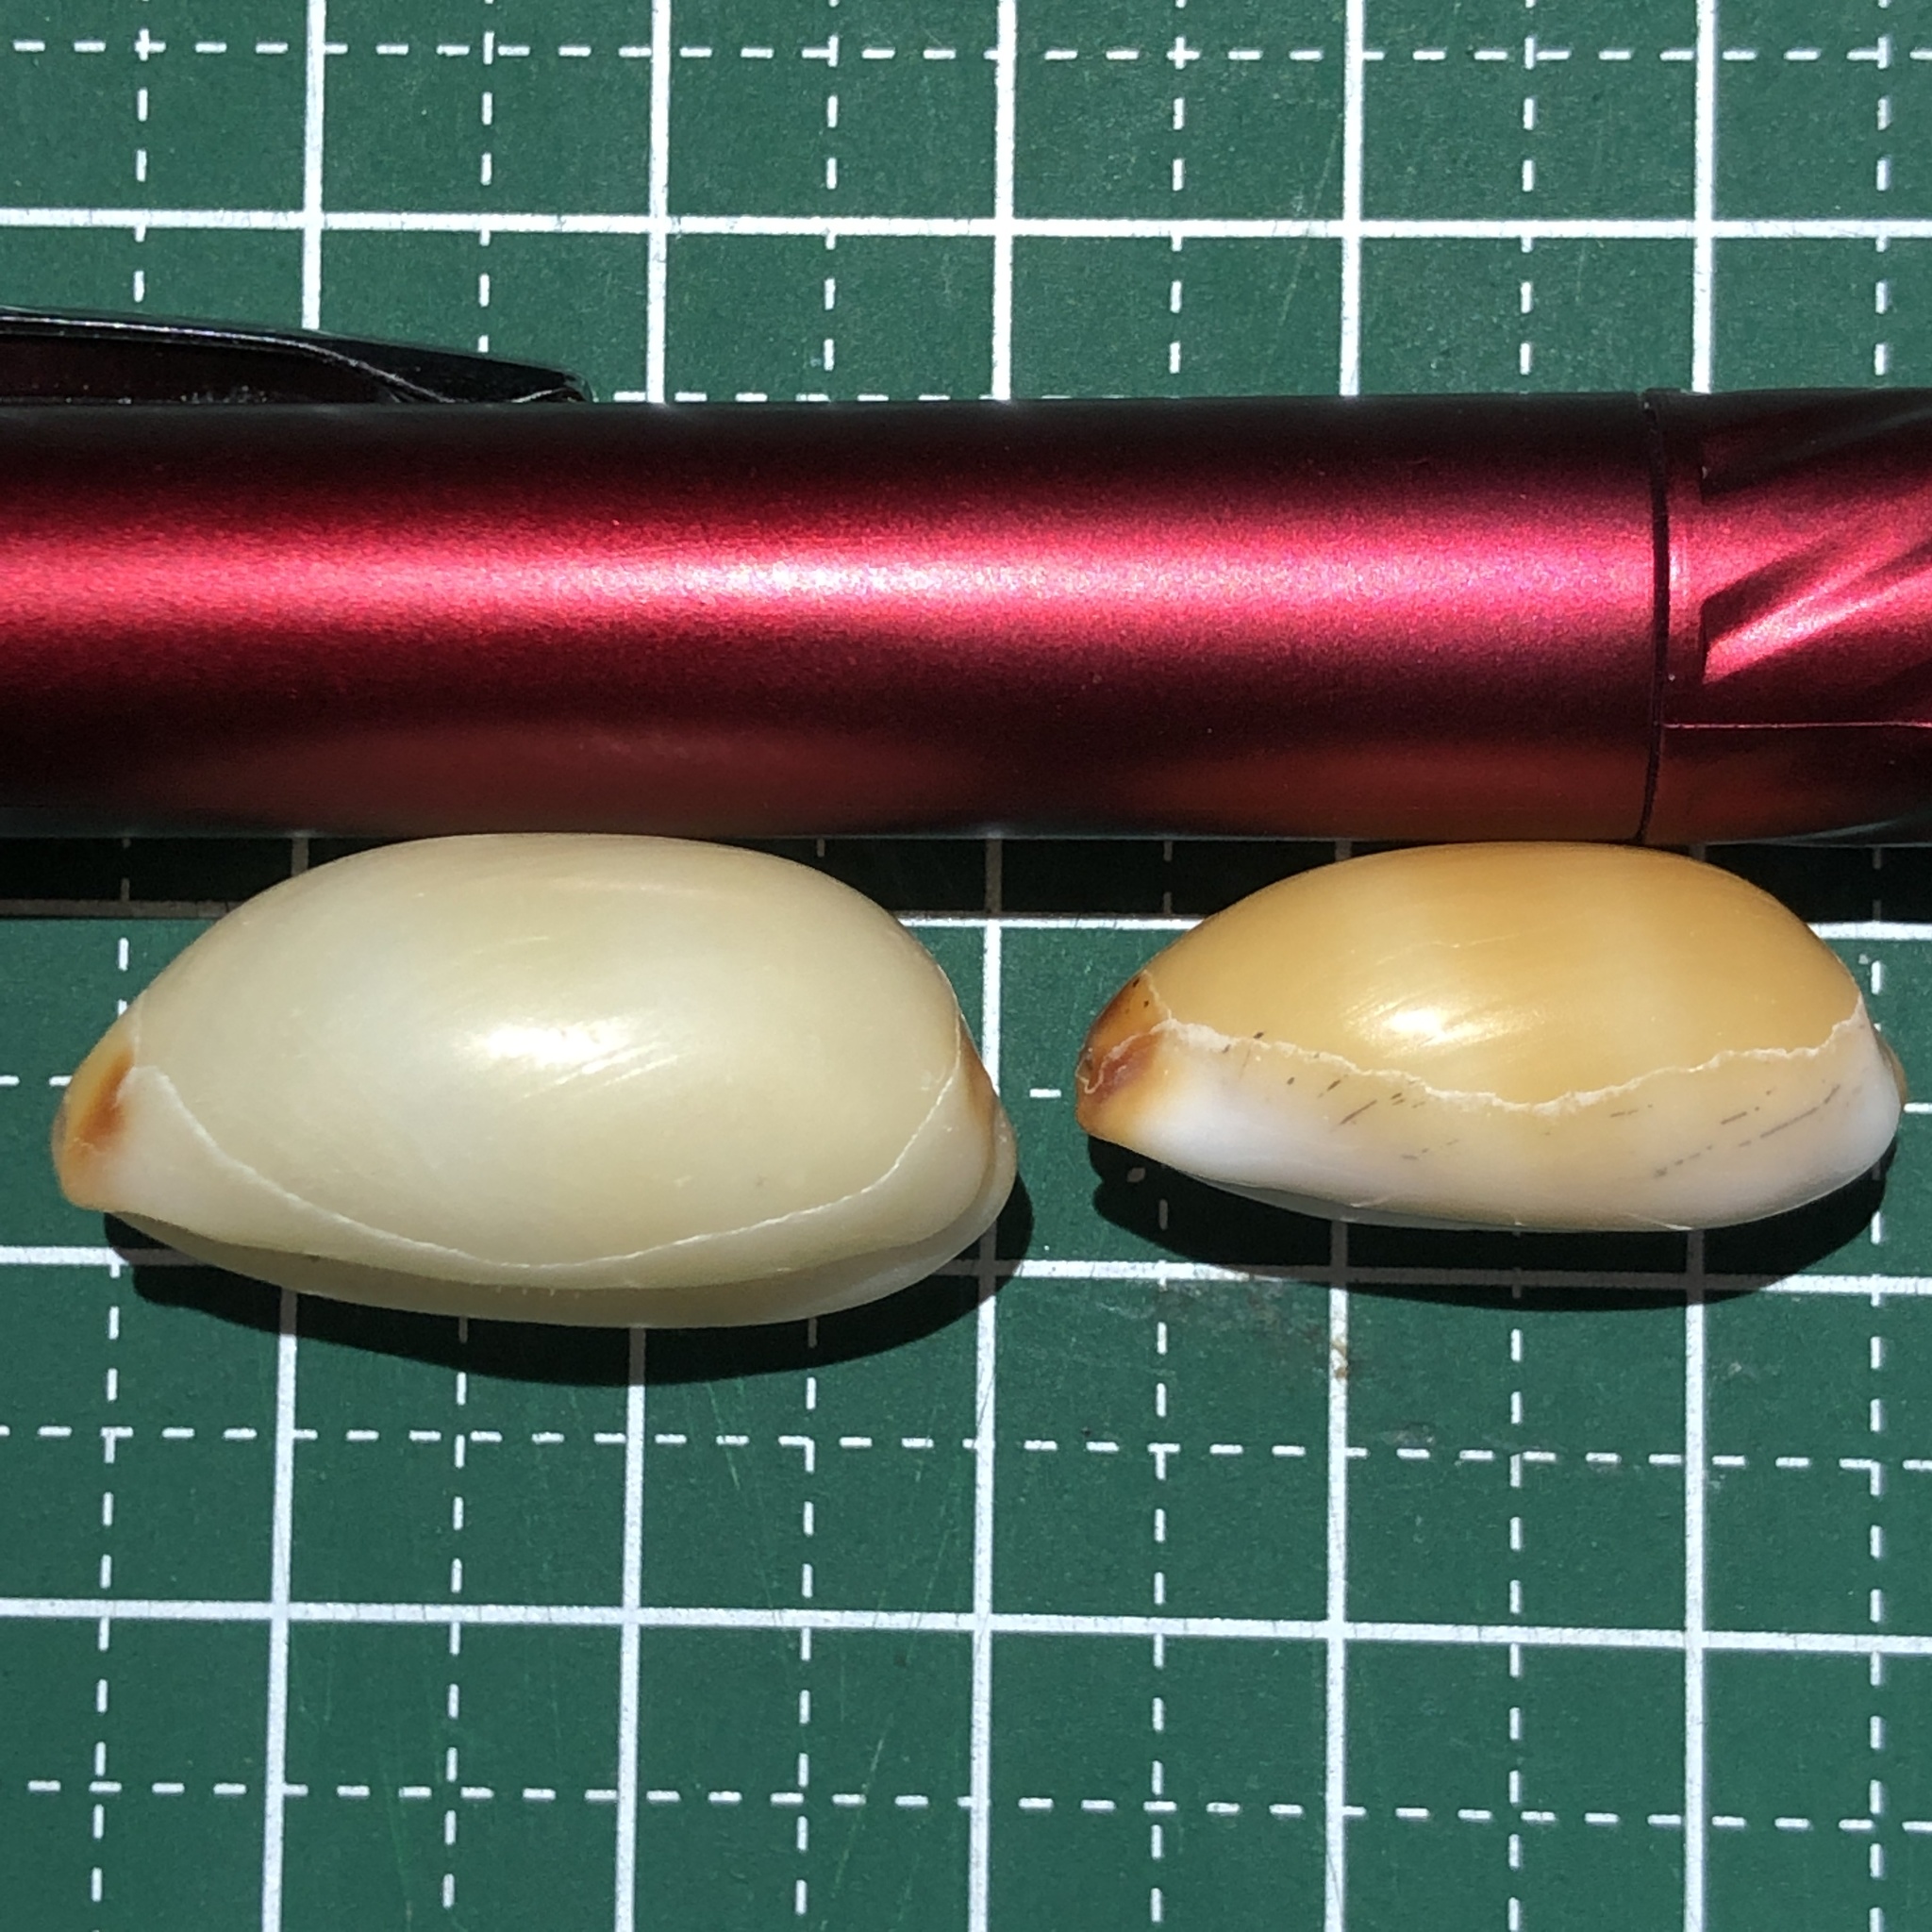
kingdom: Animalia
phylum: Mollusca
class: Gastropoda
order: Littorinimorpha
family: Cypraeidae
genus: Luria
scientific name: Luria isabella
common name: Isabell cowry
